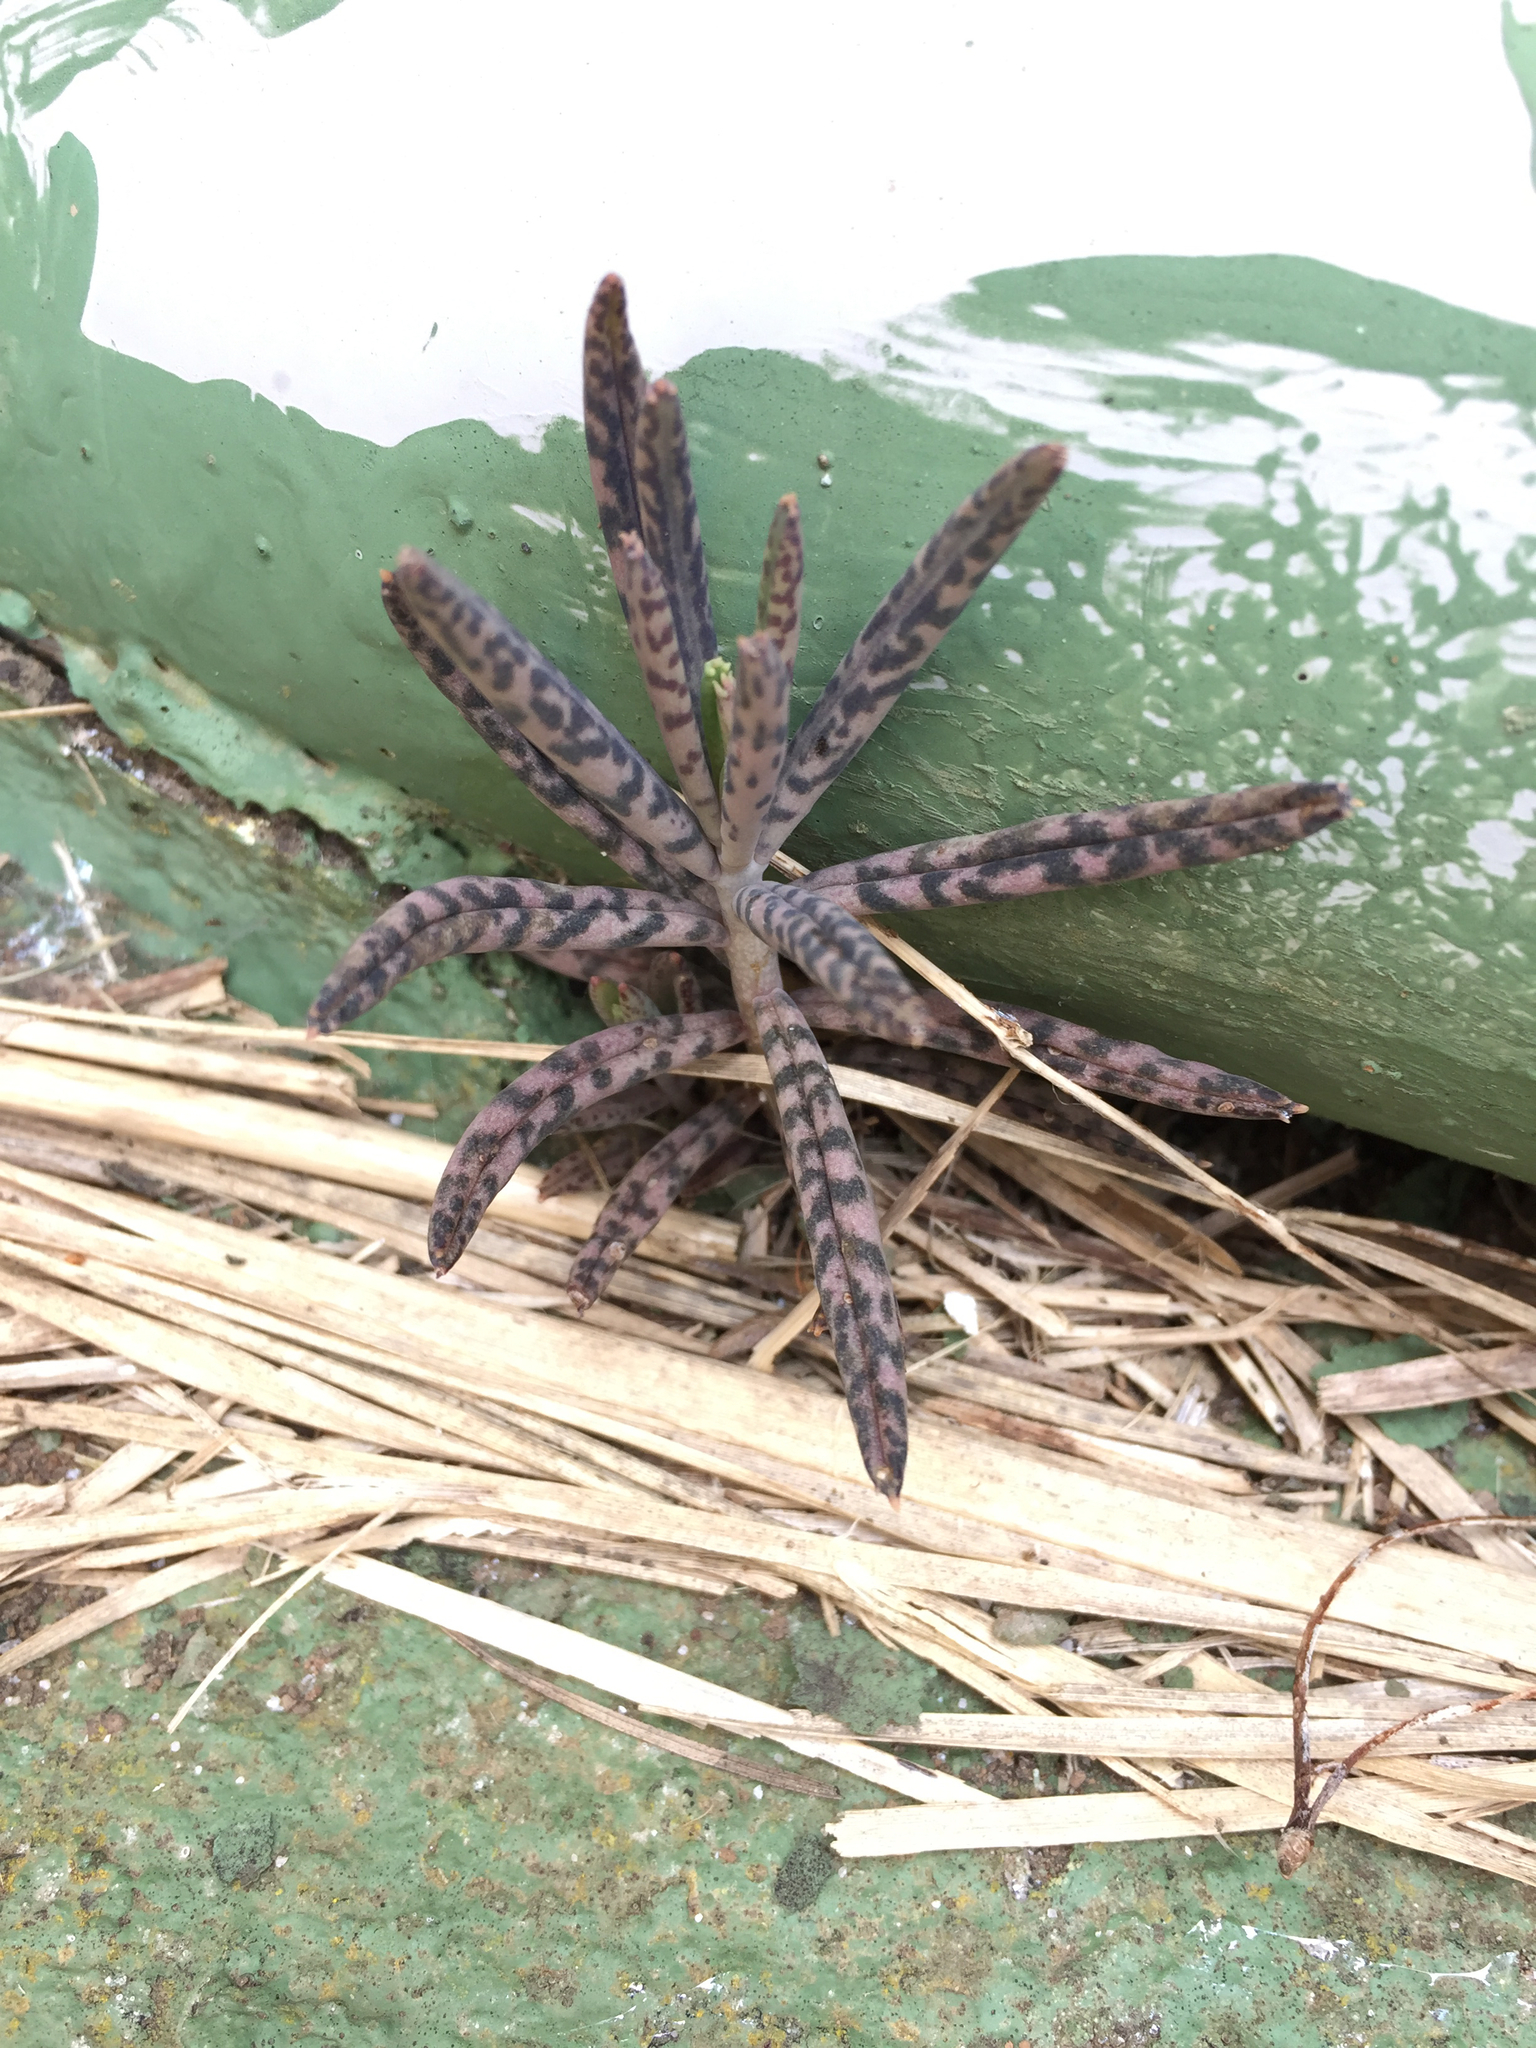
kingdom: Plantae
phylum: Tracheophyta
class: Magnoliopsida
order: Saxifragales
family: Crassulaceae
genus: Kalanchoe
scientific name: Kalanchoe delagoensis
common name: Chandelier plant
